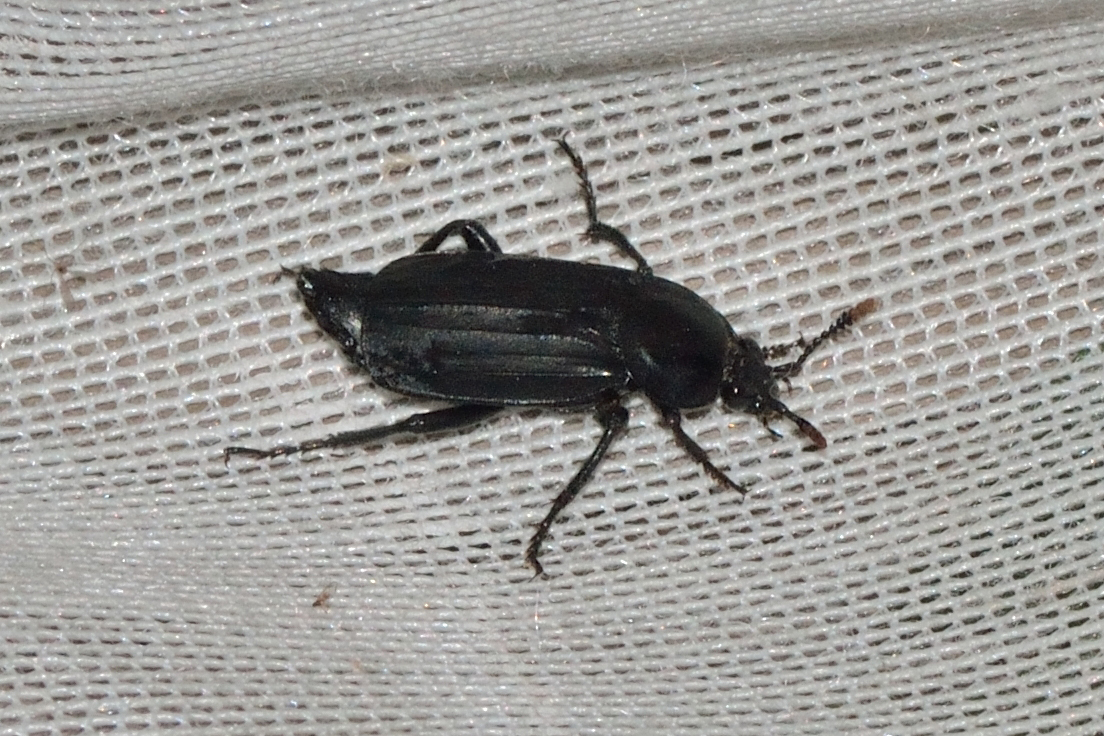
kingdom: Animalia
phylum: Arthropoda
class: Insecta
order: Coleoptera
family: Staphylinidae
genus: Necrodes
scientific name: Necrodes littoralis
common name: Shore sexton beetle
